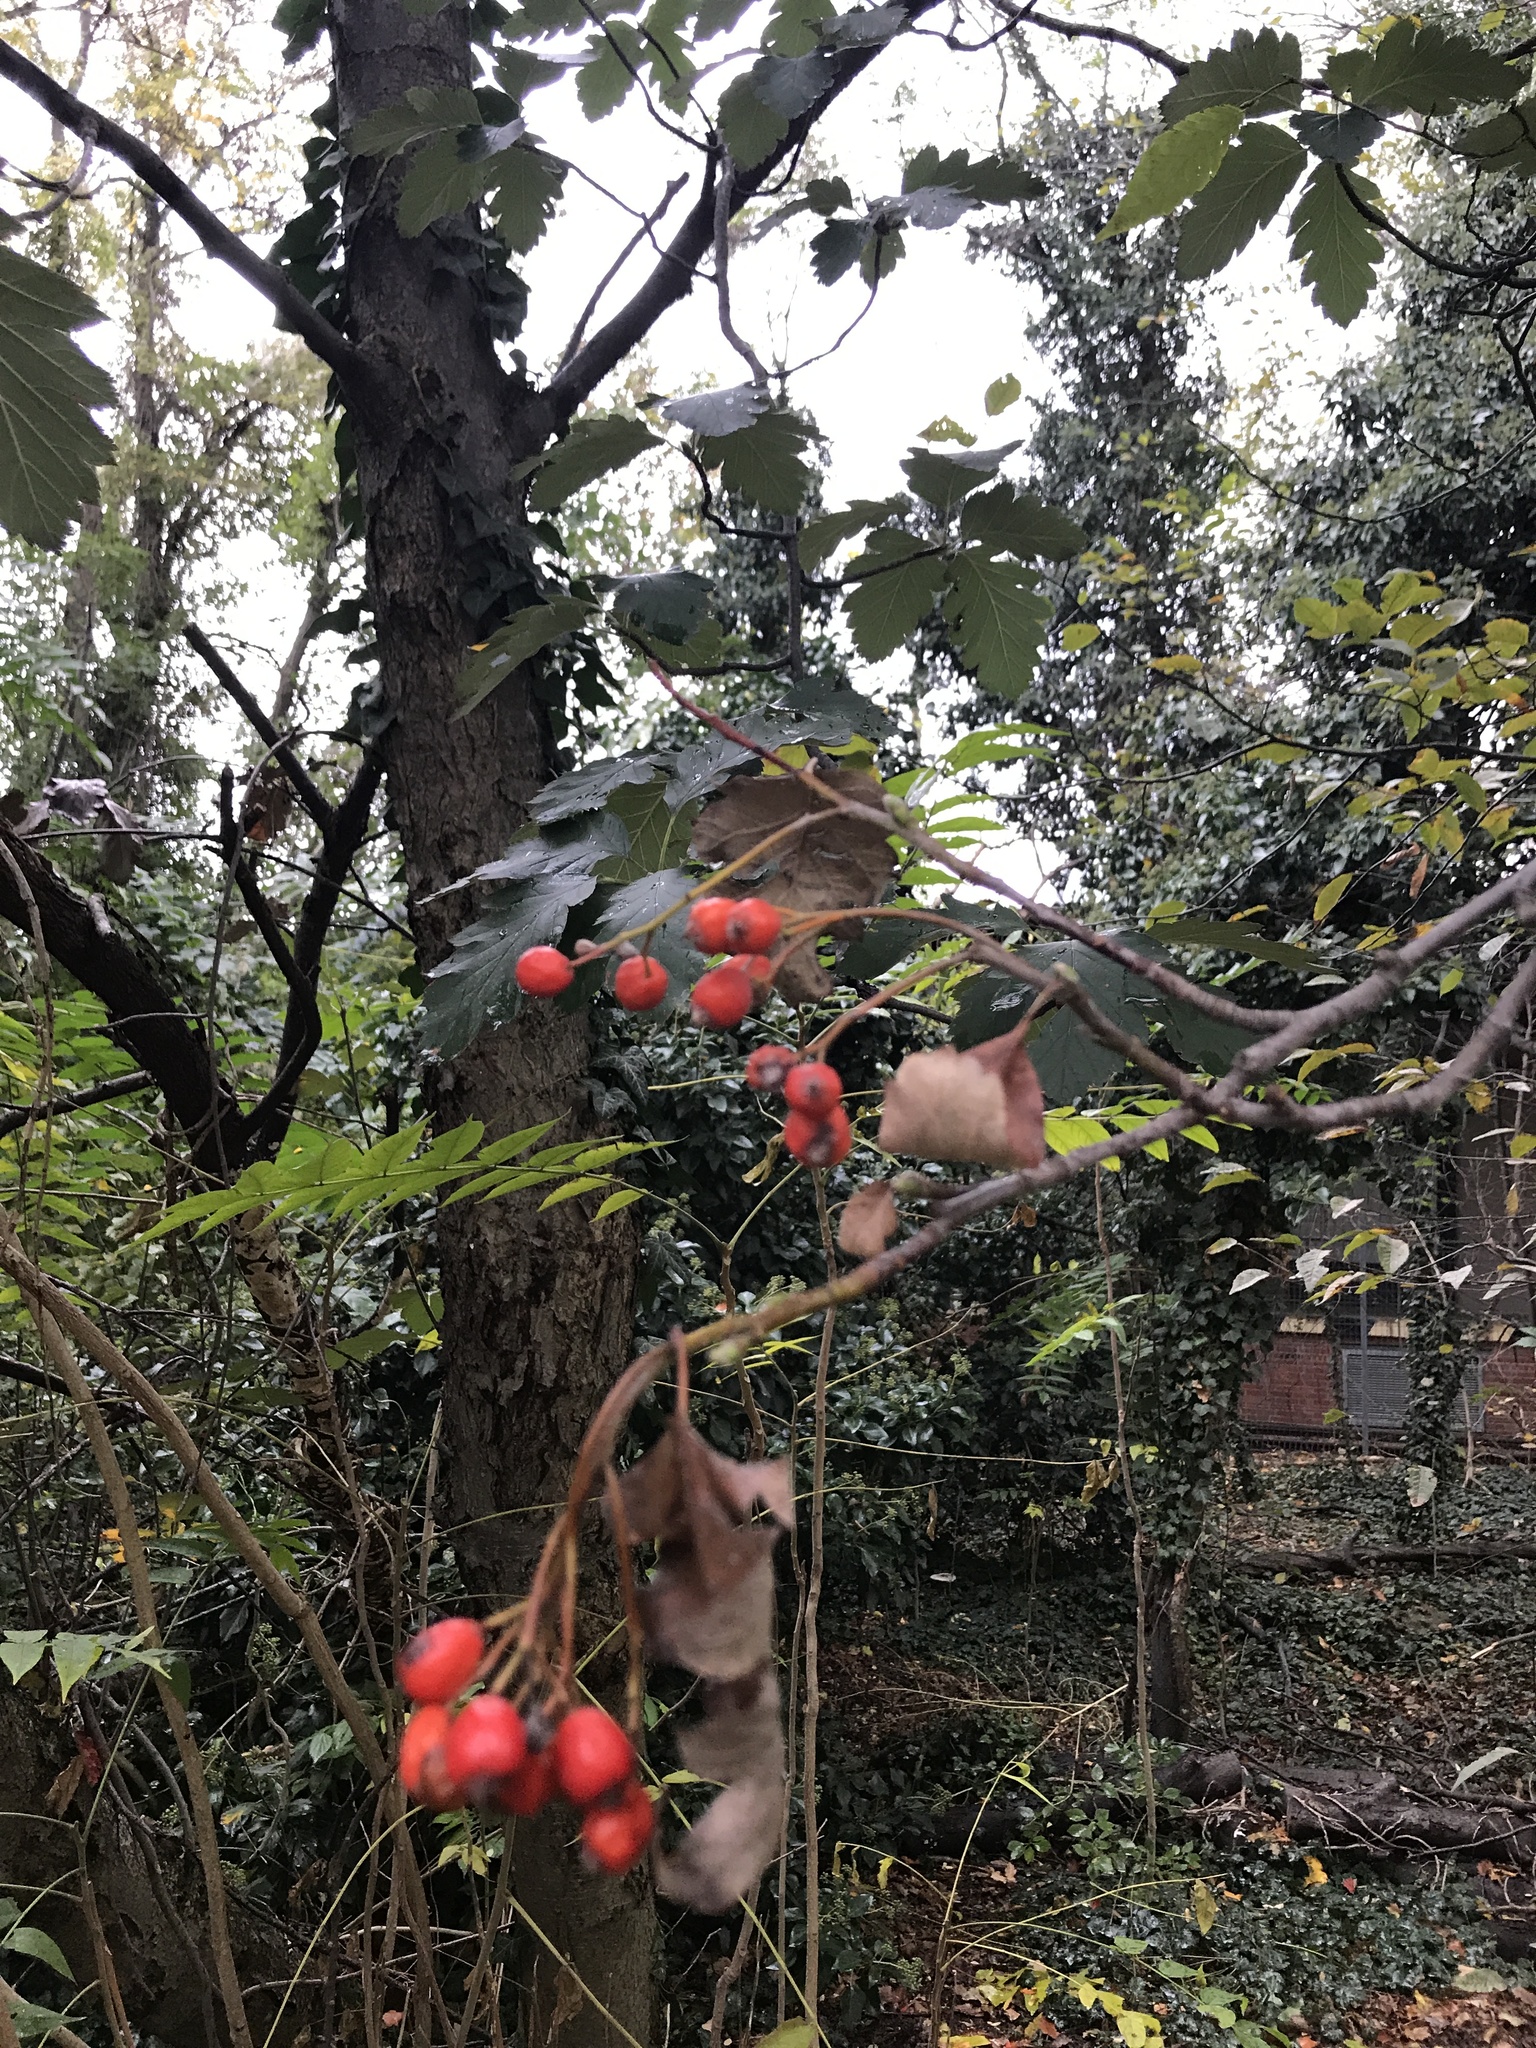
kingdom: Plantae
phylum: Tracheophyta
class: Magnoliopsida
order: Rosales
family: Rosaceae
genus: Sorbus
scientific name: Sorbus aucuparia
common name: Rowan
